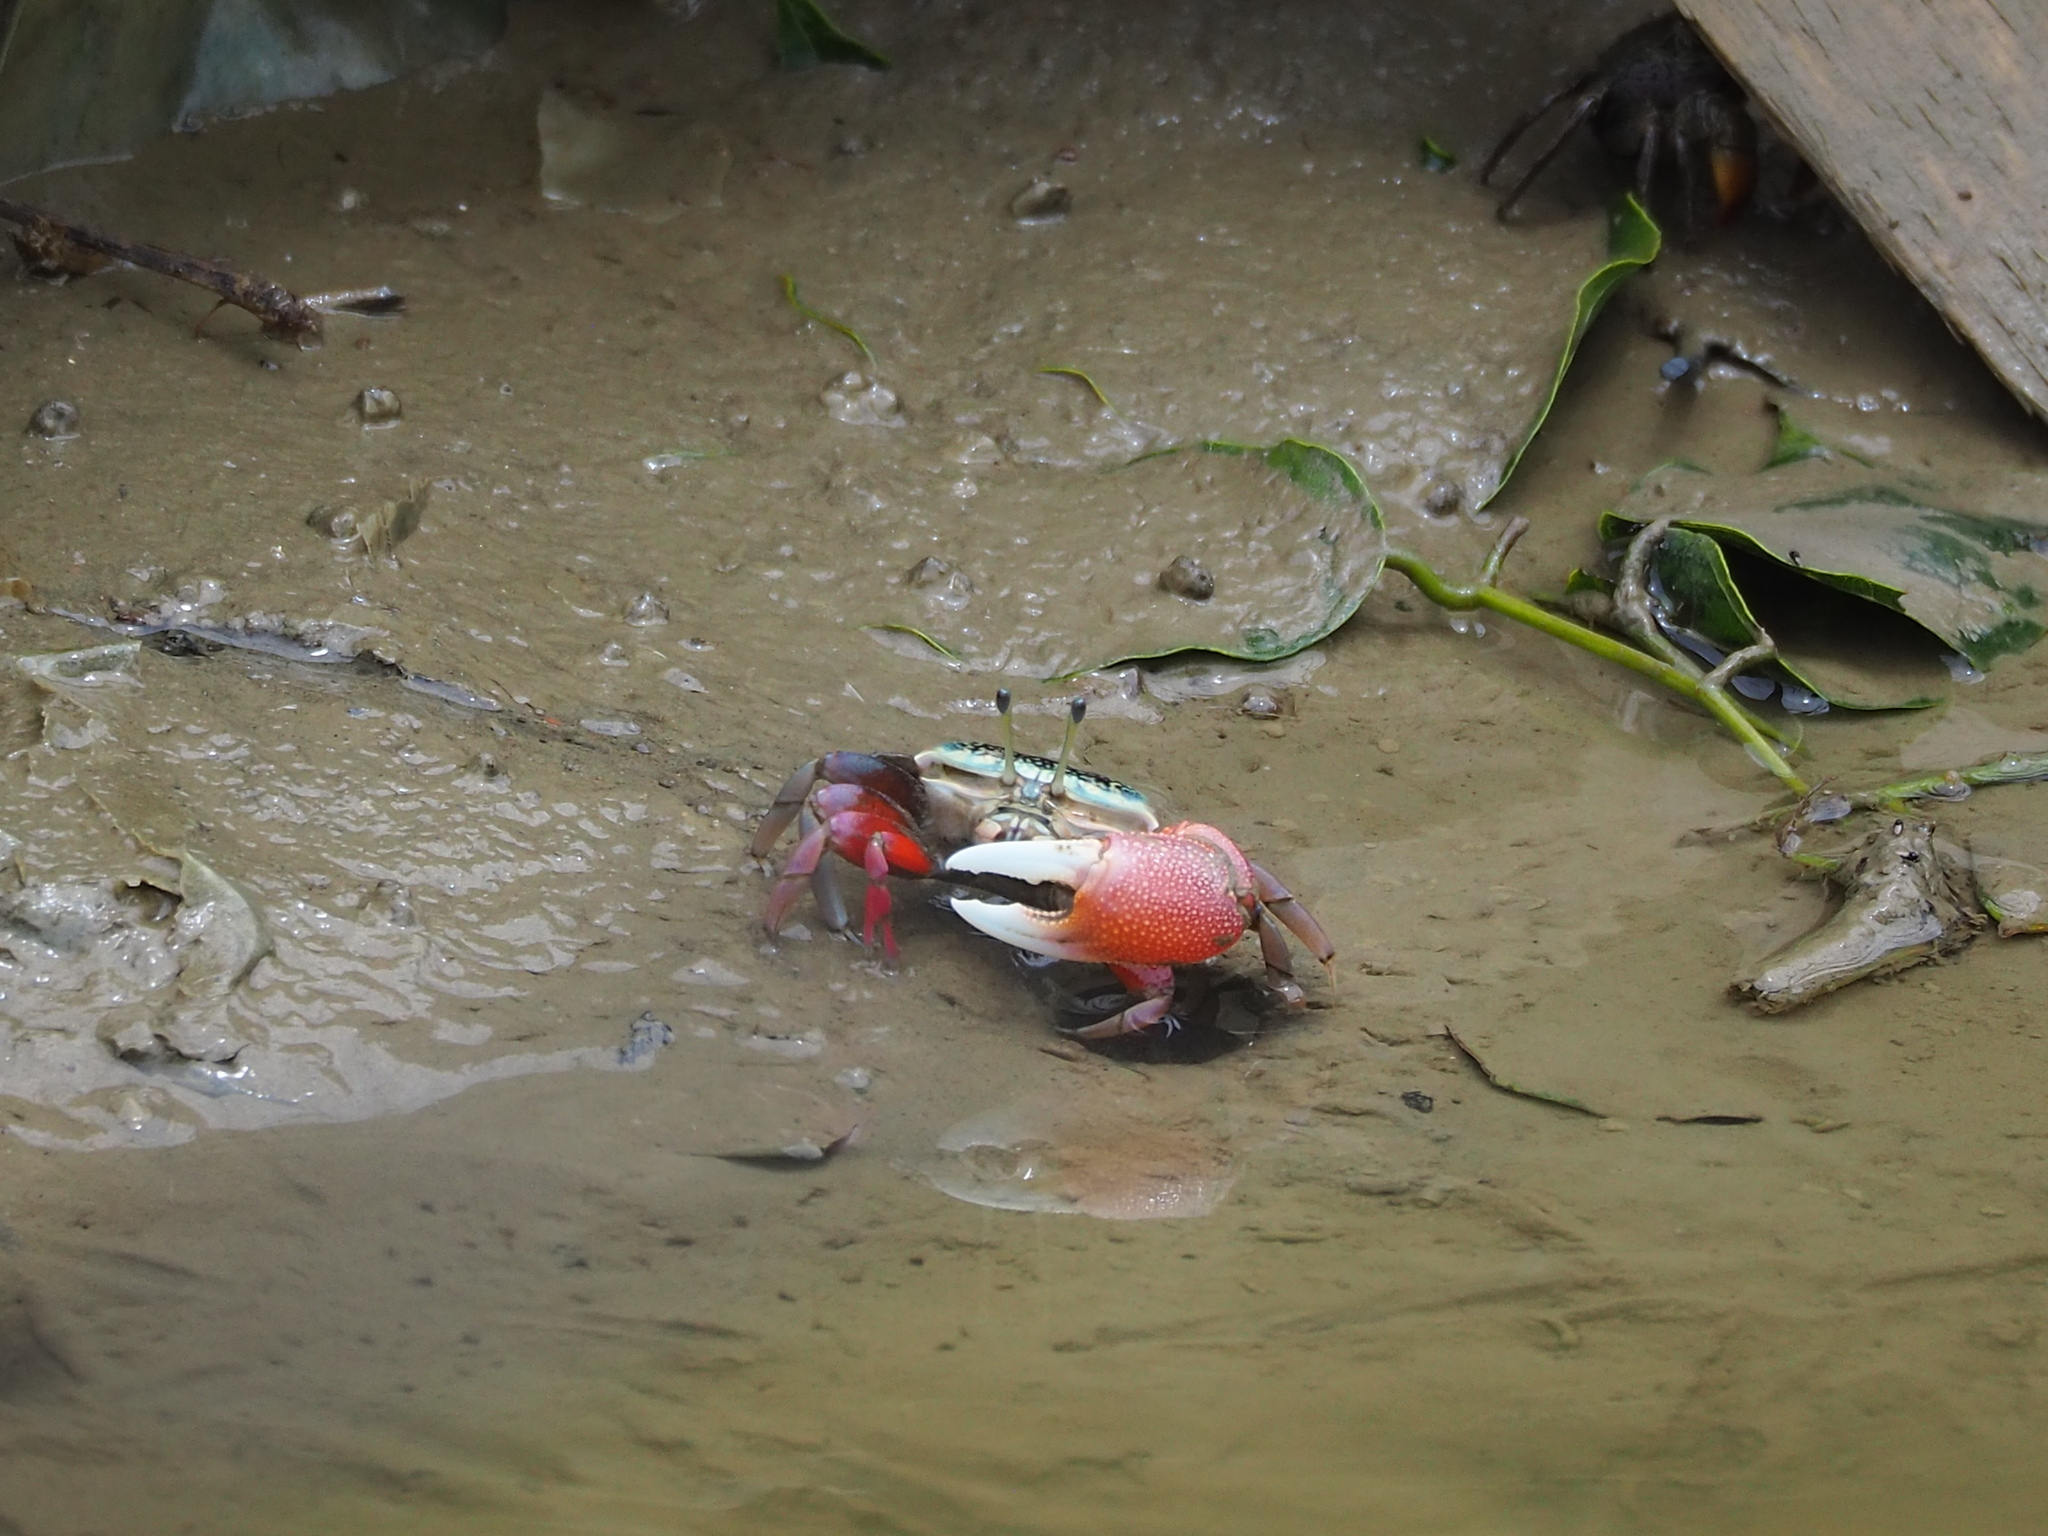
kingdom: Animalia
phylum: Arthropoda
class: Malacostraca
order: Decapoda
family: Ocypodidae
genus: Tubuca
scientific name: Tubuca arcuata
